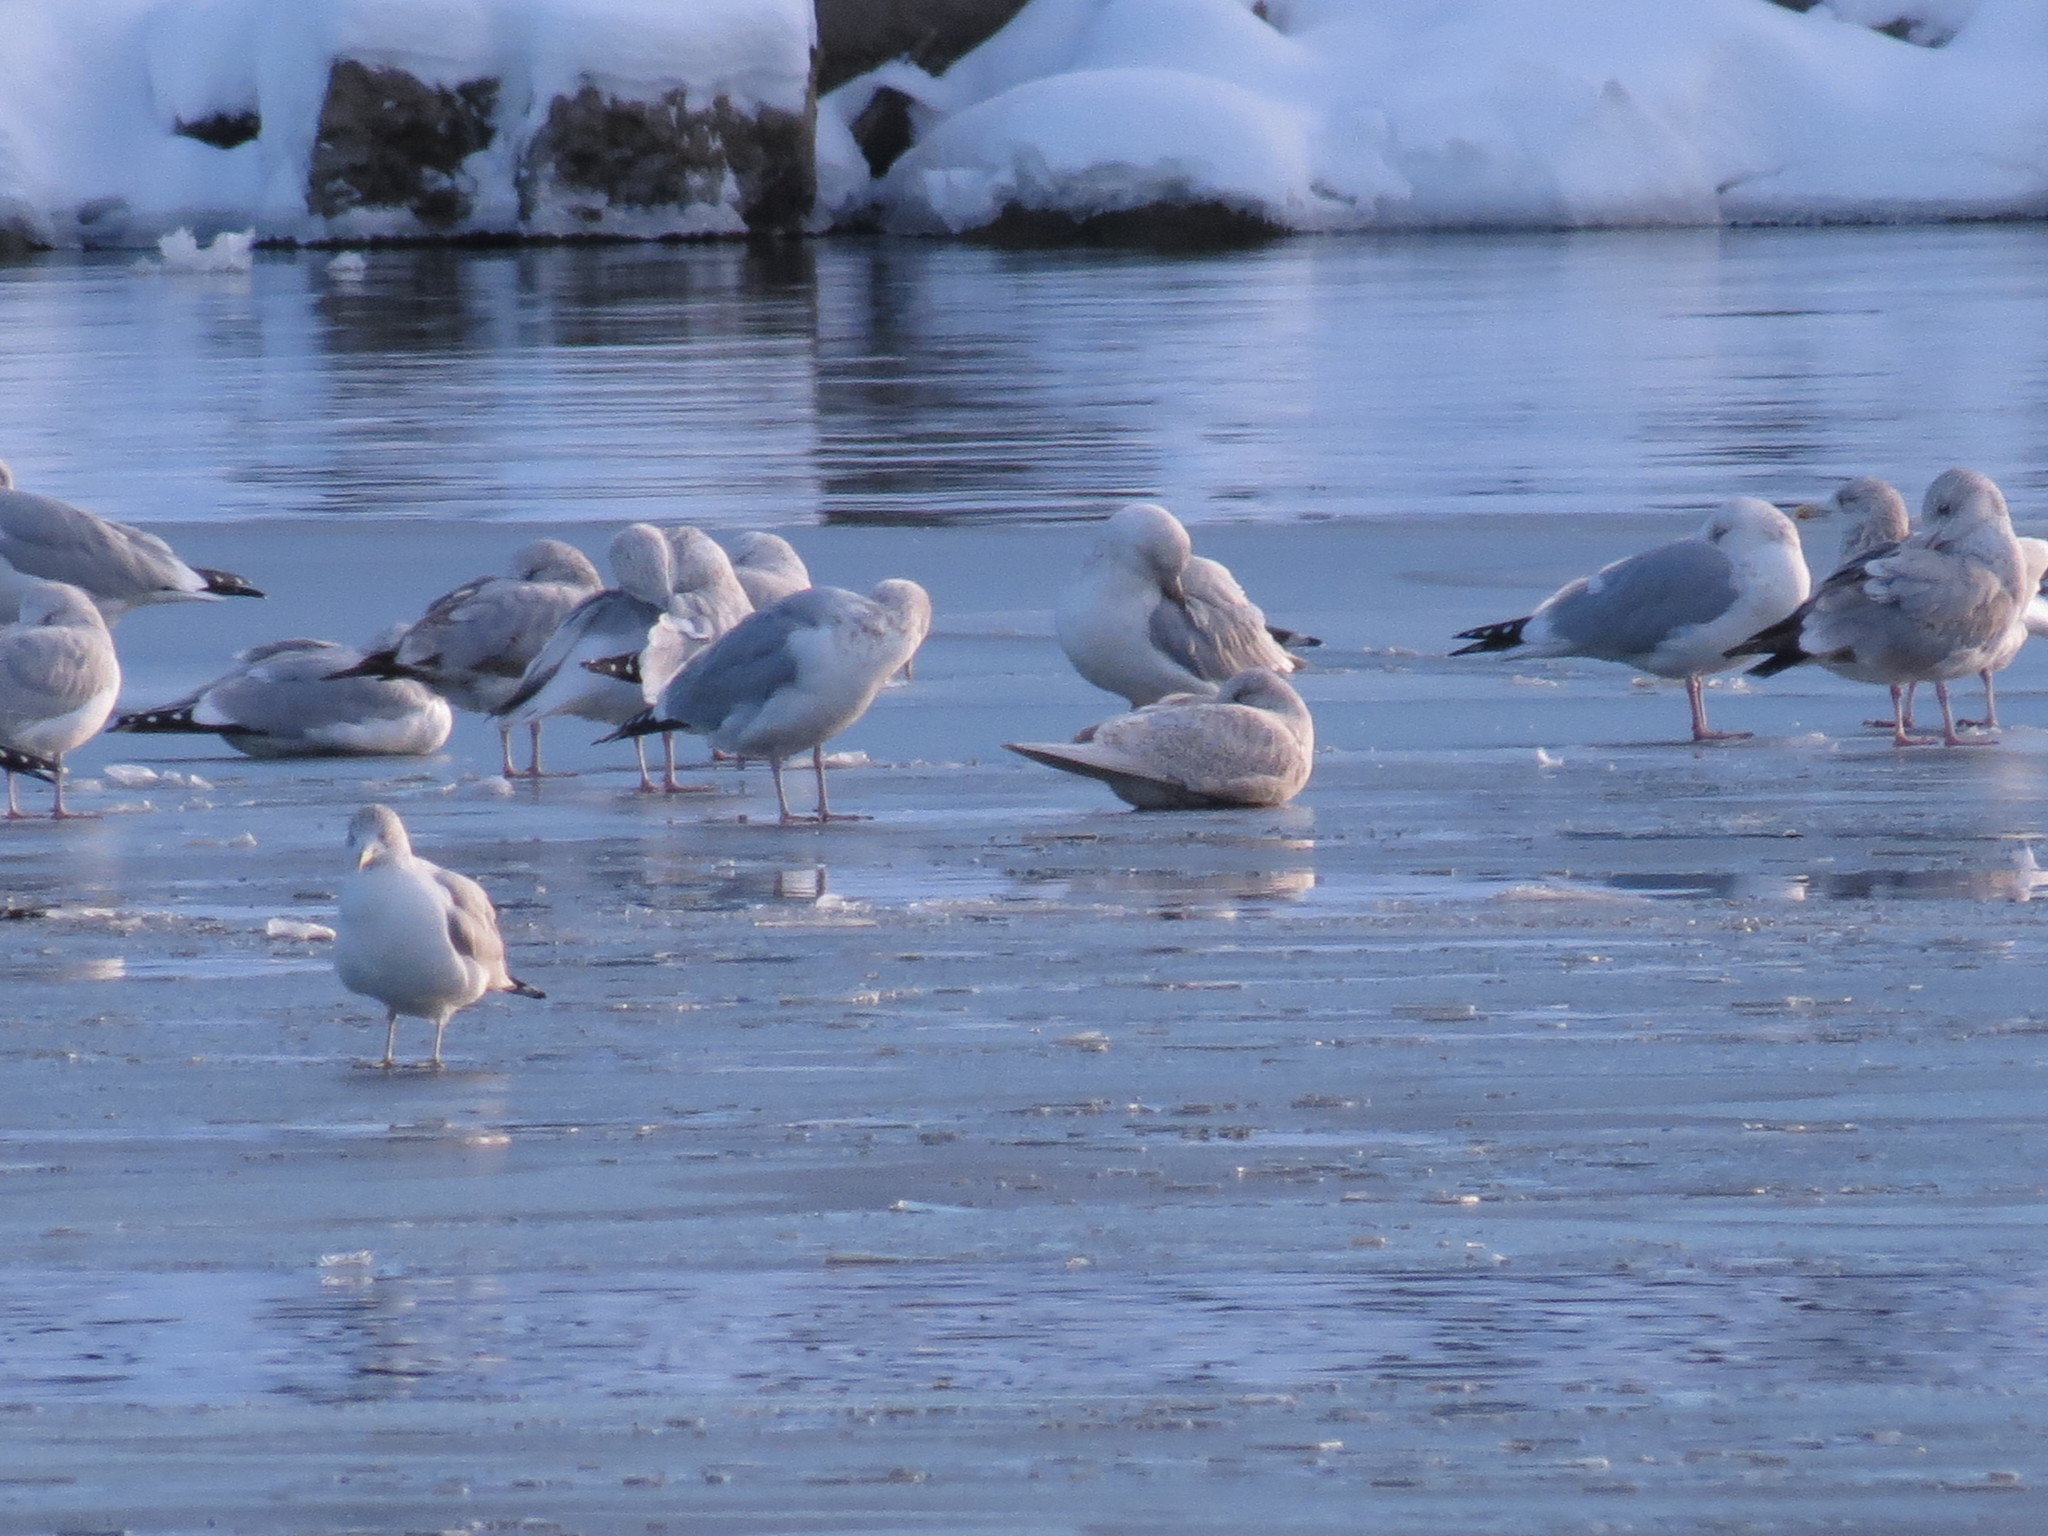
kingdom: Animalia
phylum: Chordata
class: Aves
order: Charadriiformes
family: Laridae
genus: Larus
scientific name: Larus glaucoides
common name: Iceland gull
